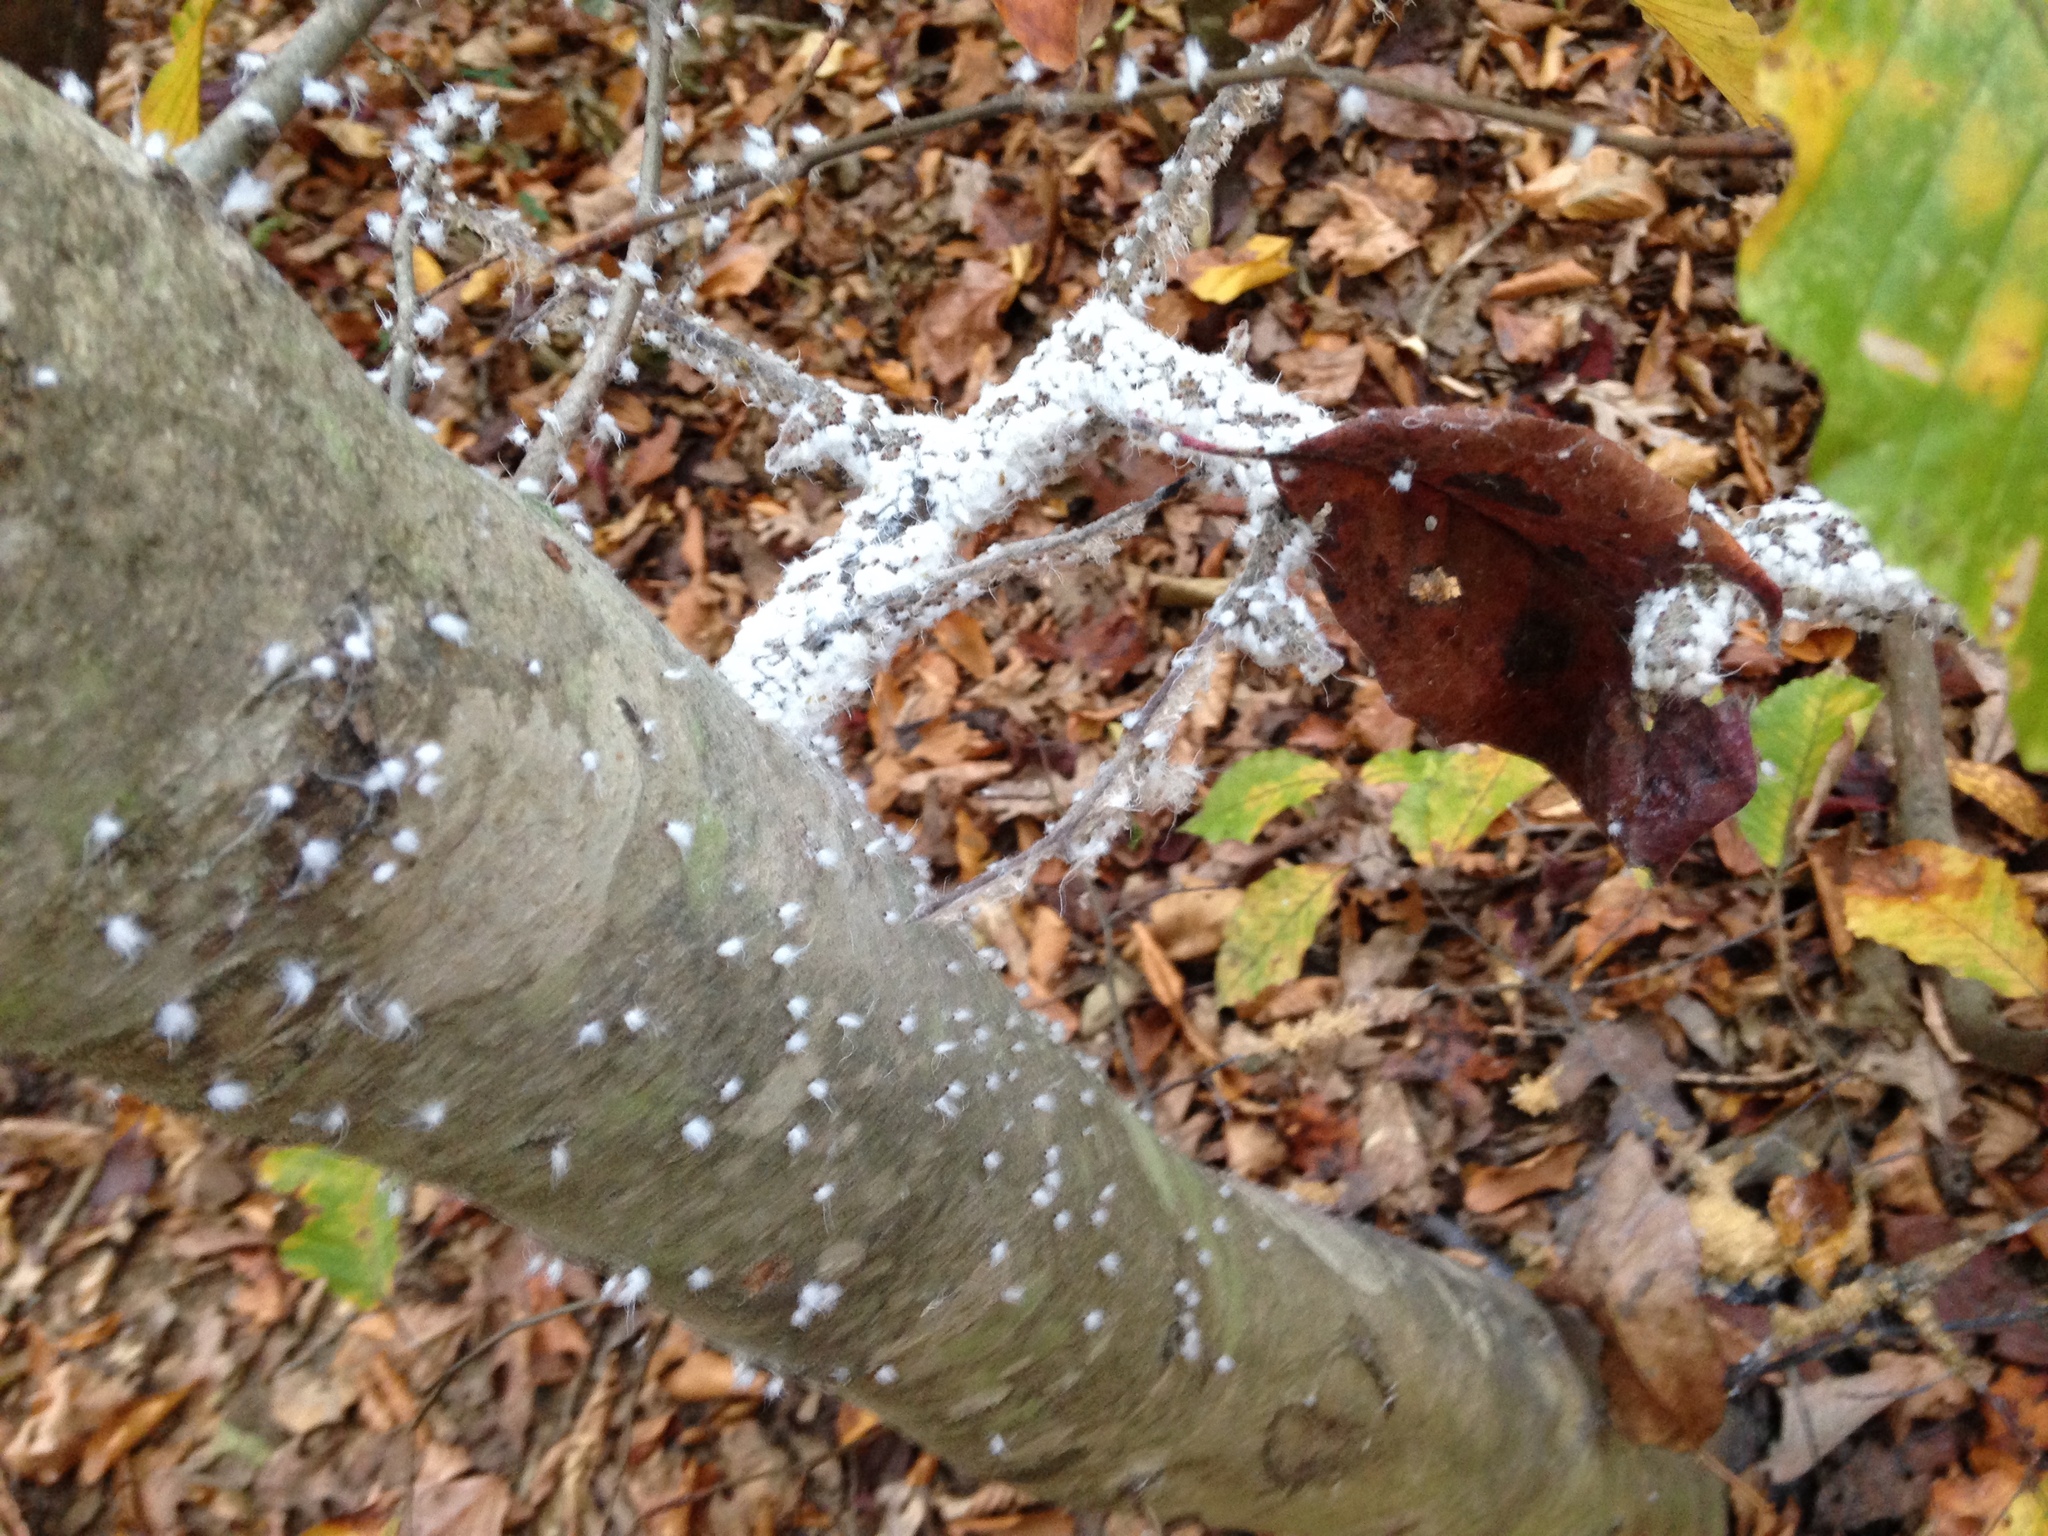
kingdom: Animalia
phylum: Arthropoda
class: Insecta
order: Hemiptera
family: Aphididae
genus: Grylloprociphilus
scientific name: Grylloprociphilus imbricator
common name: Beech blight aphid
